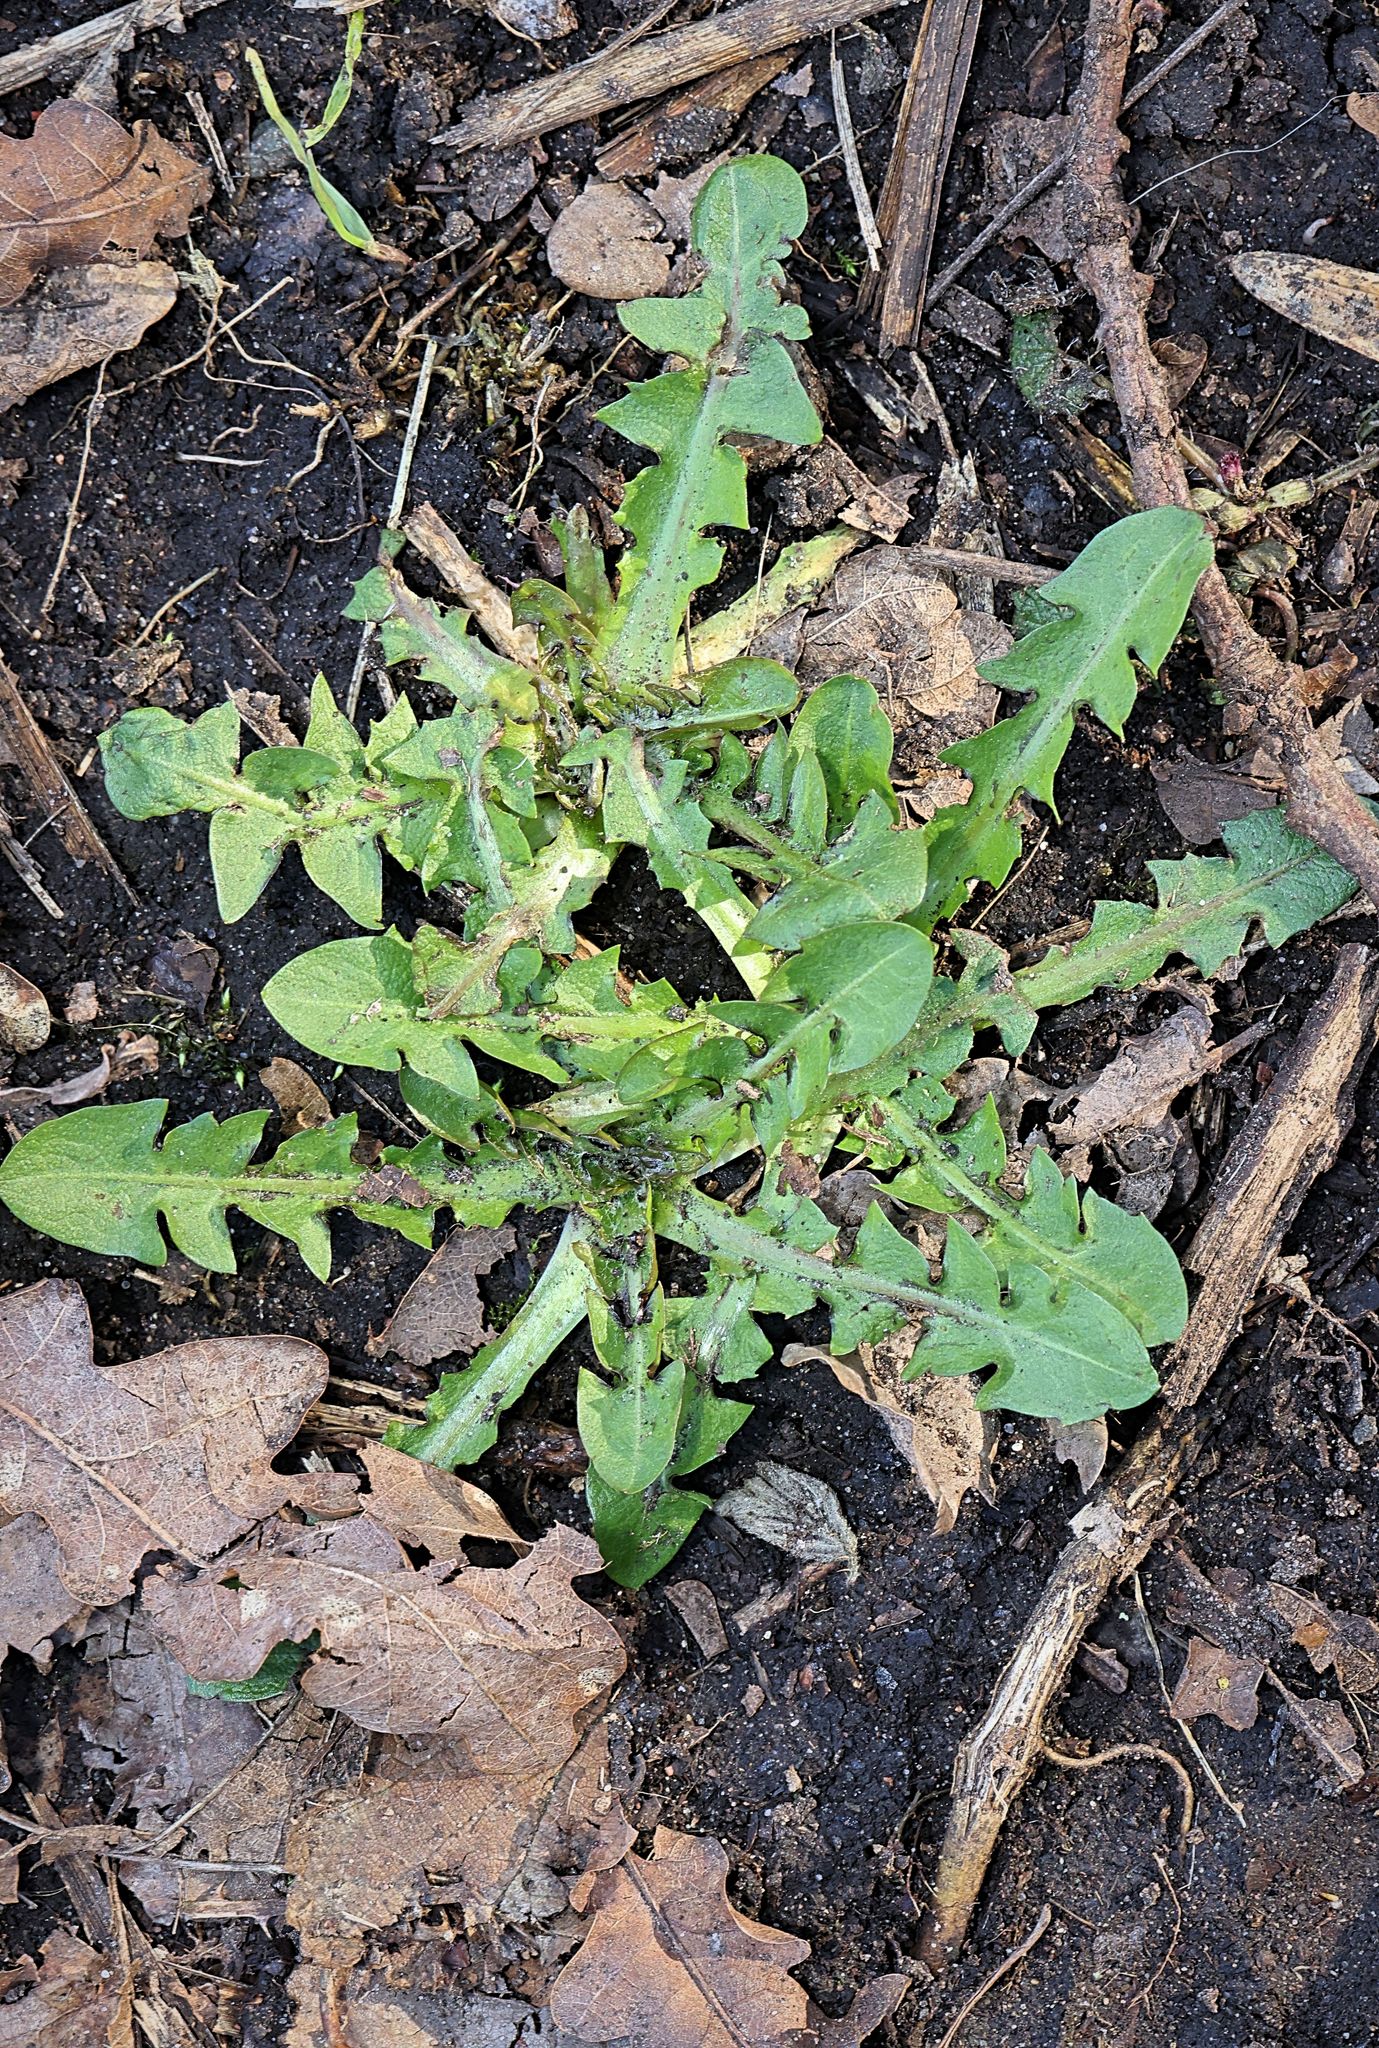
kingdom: Plantae
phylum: Tracheophyta
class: Magnoliopsida
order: Asterales
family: Asteraceae
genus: Taraxacum
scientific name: Taraxacum officinale
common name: Common dandelion
